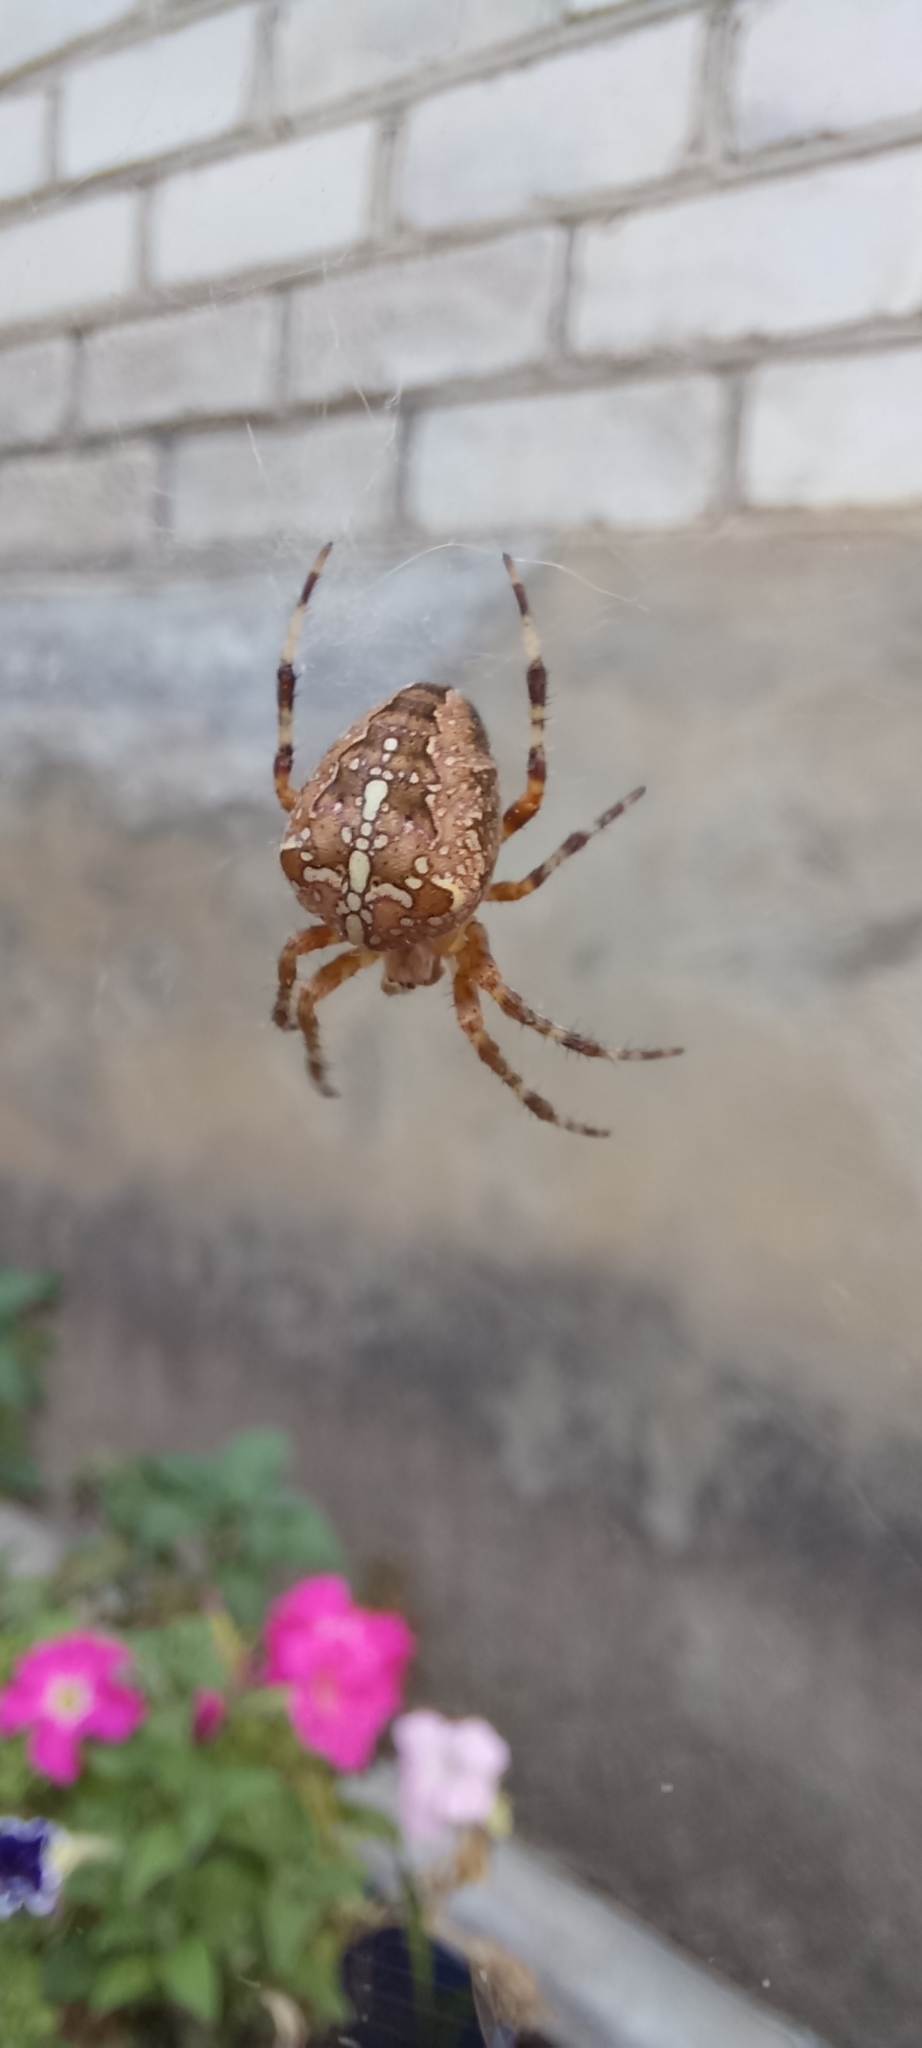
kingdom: Animalia
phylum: Arthropoda
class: Arachnida
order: Araneae
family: Araneidae
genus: Araneus
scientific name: Araneus diadematus
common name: Cross orbweaver
